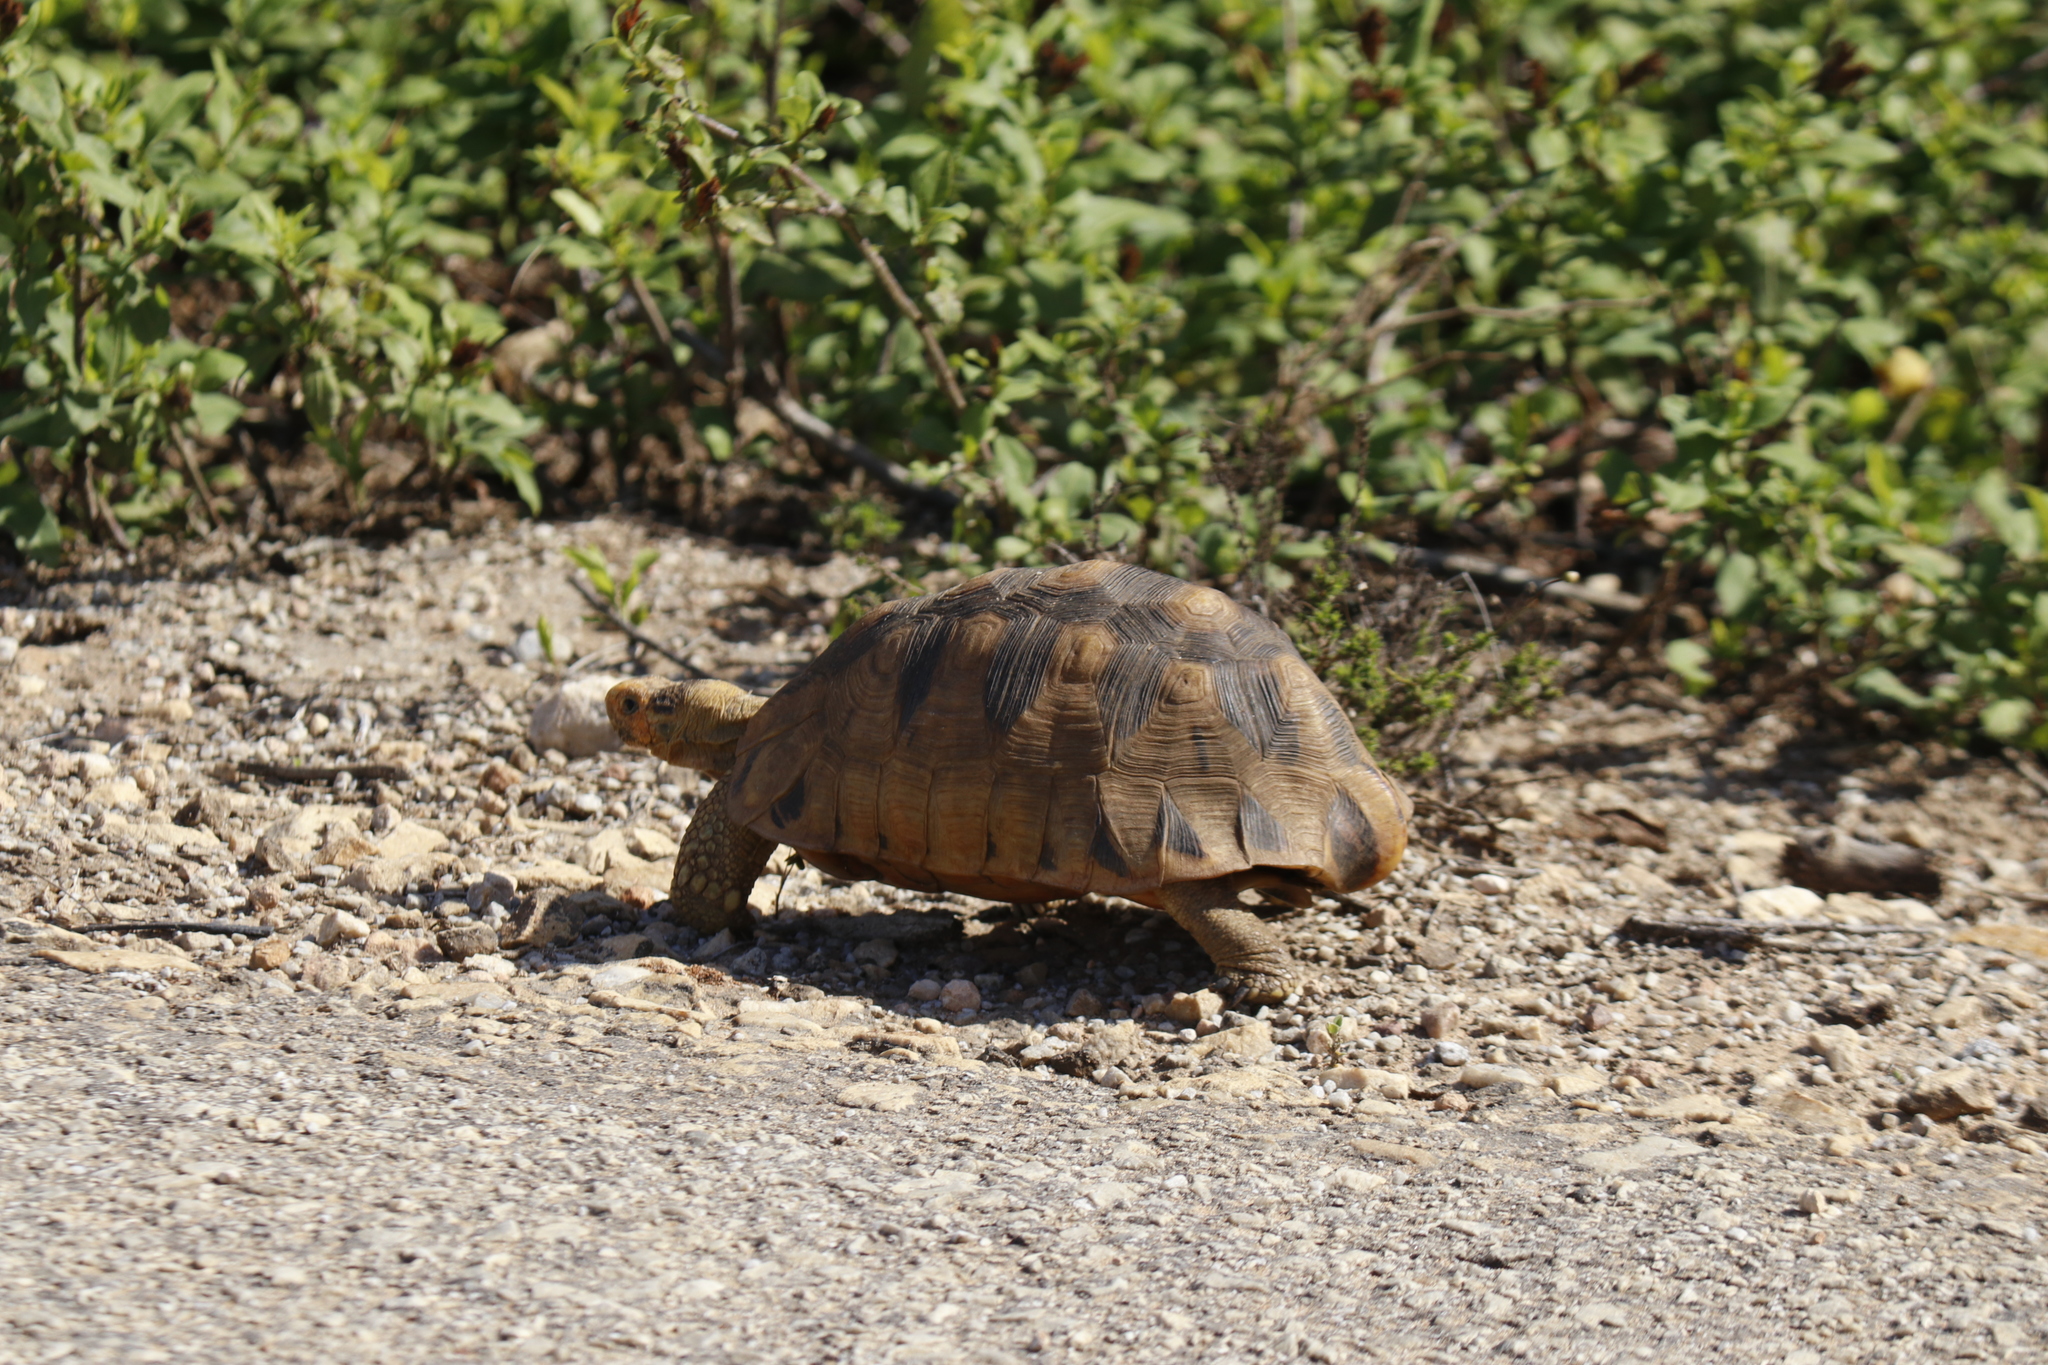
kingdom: Animalia
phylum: Chordata
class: Testudines
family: Testudinidae
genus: Chersina
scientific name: Chersina angulata
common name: South african bowsprit tortoise
